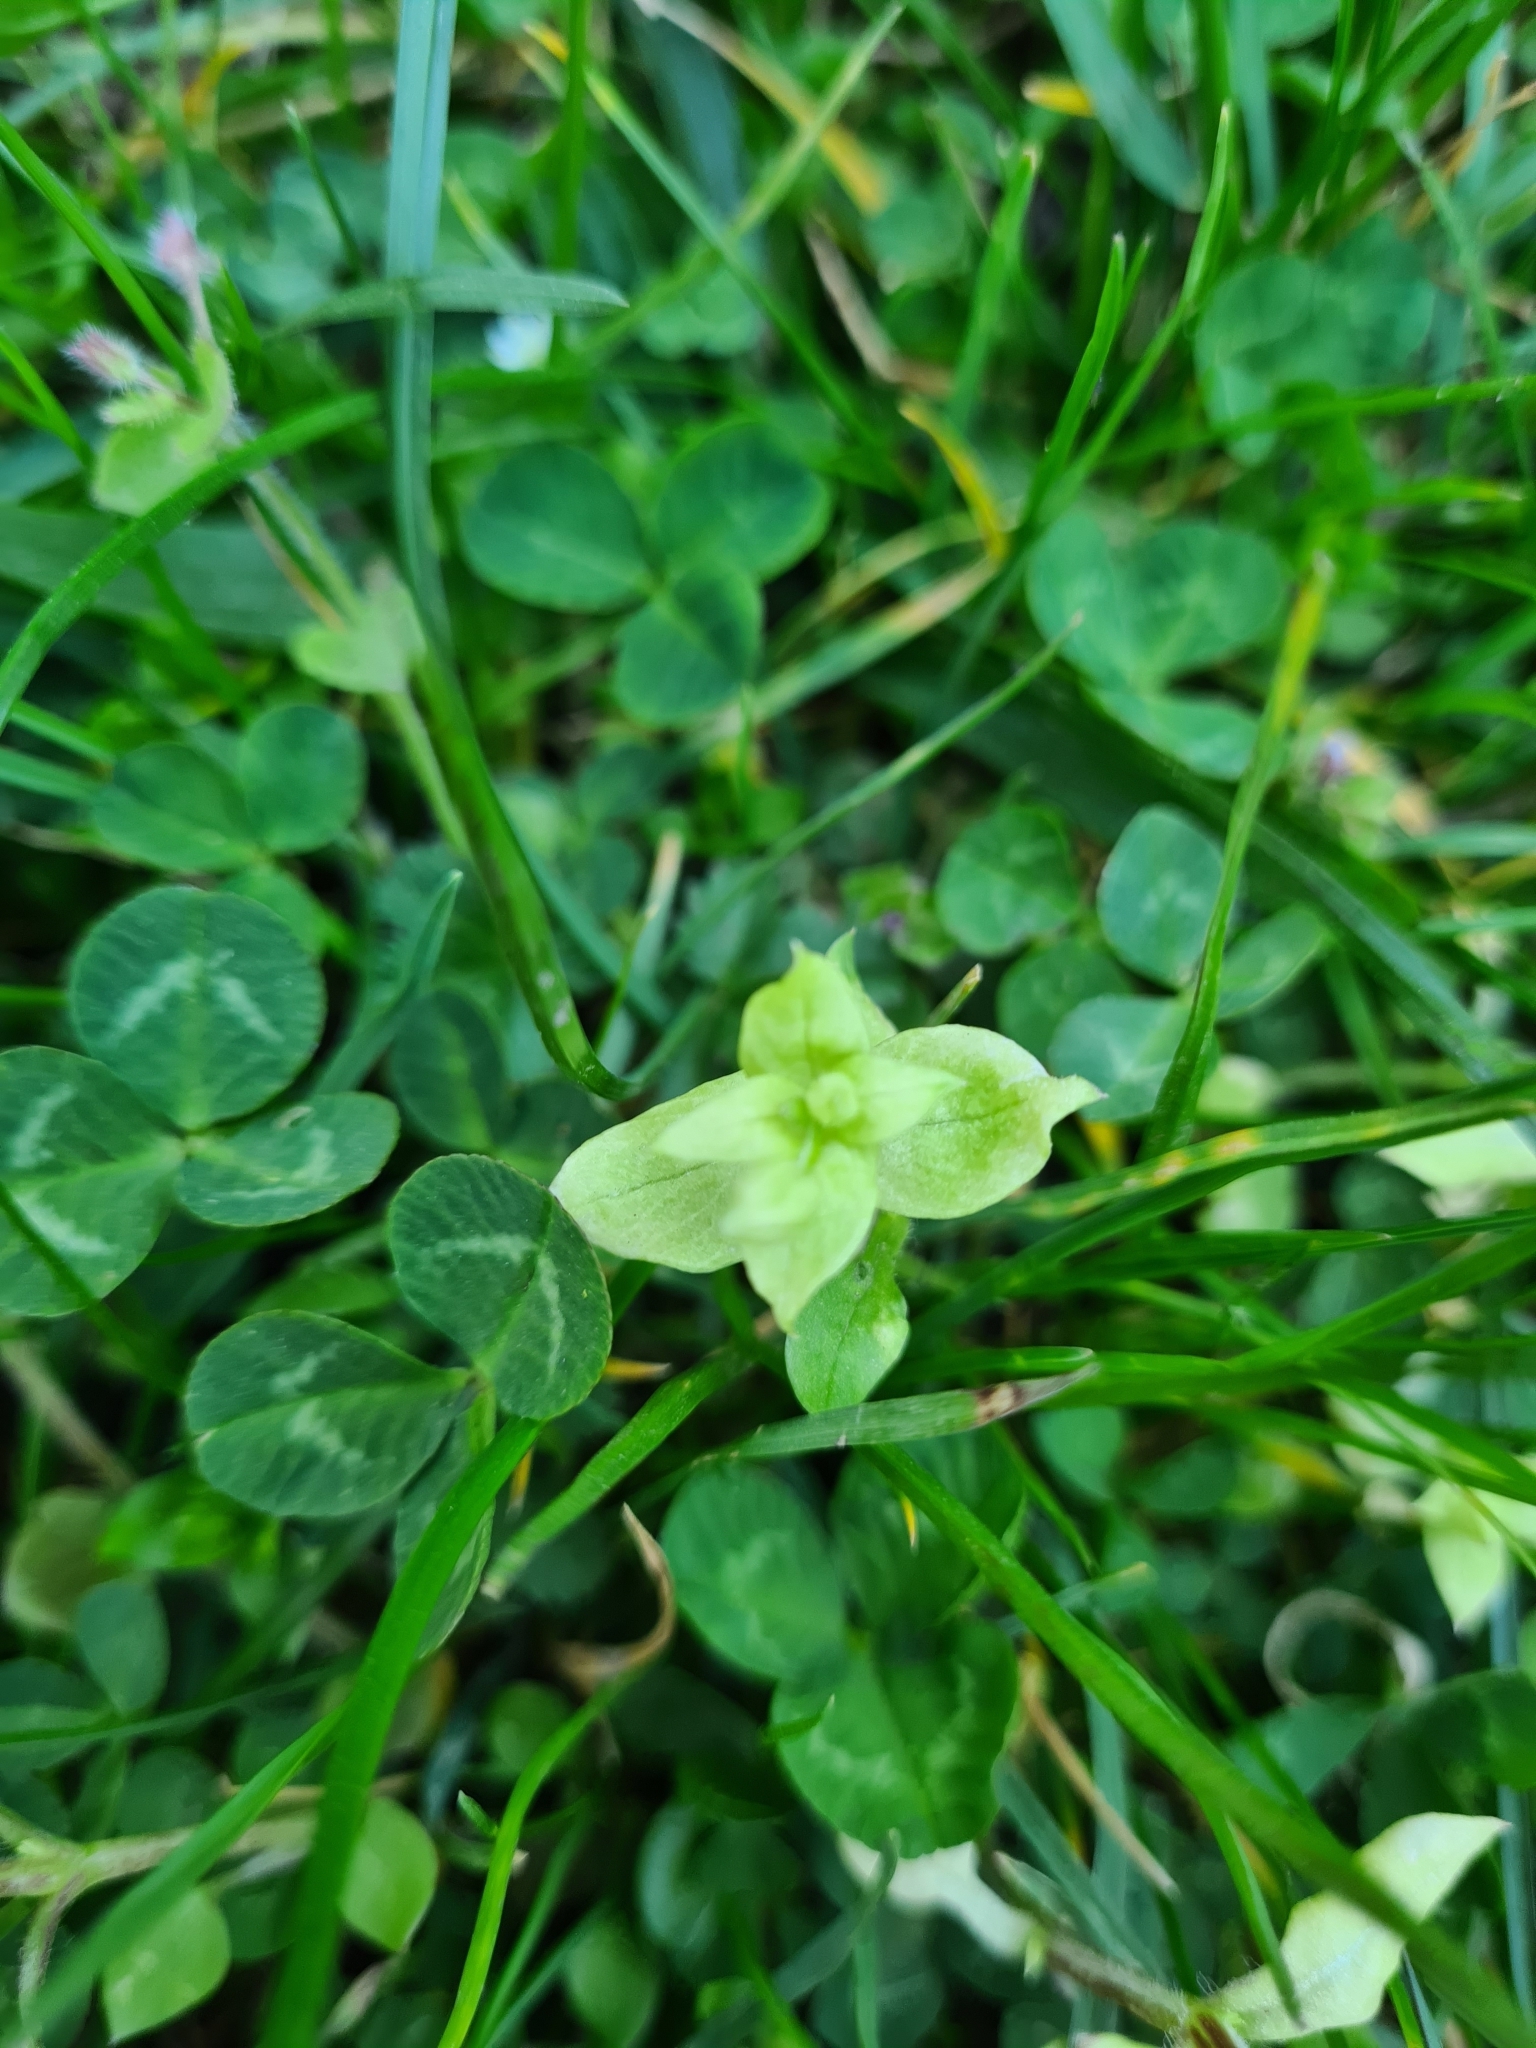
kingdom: Plantae
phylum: Tracheophyta
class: Magnoliopsida
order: Caryophyllales
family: Caryophyllaceae
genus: Stellaria
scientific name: Stellaria media
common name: Common chickweed
